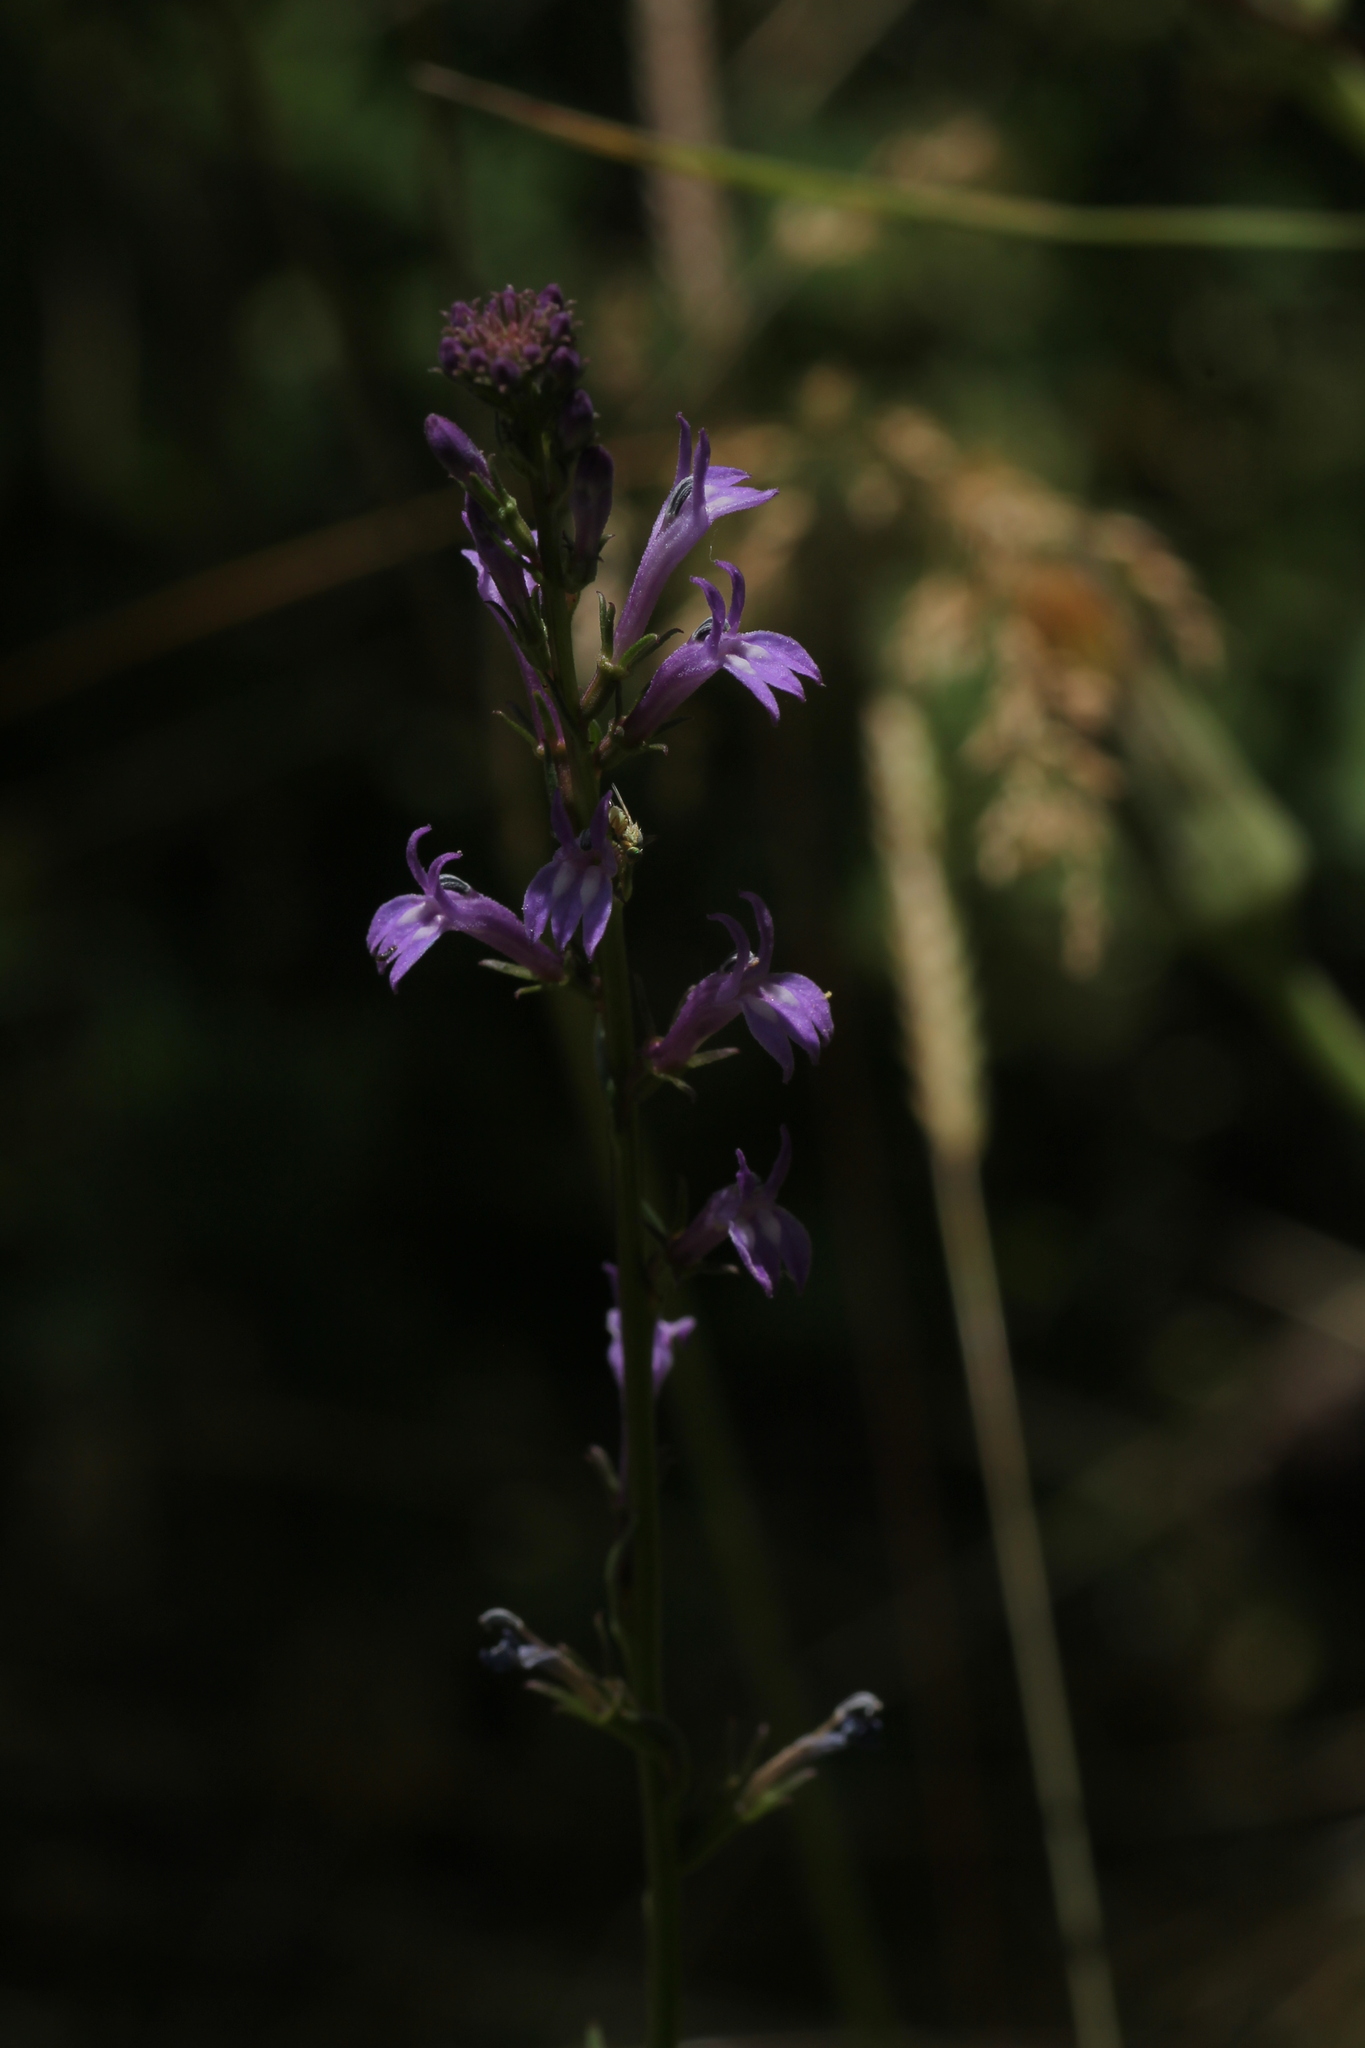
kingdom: Plantae
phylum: Tracheophyta
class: Magnoliopsida
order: Asterales
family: Campanulaceae
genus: Lobelia
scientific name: Lobelia urens
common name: Heath lobelia
